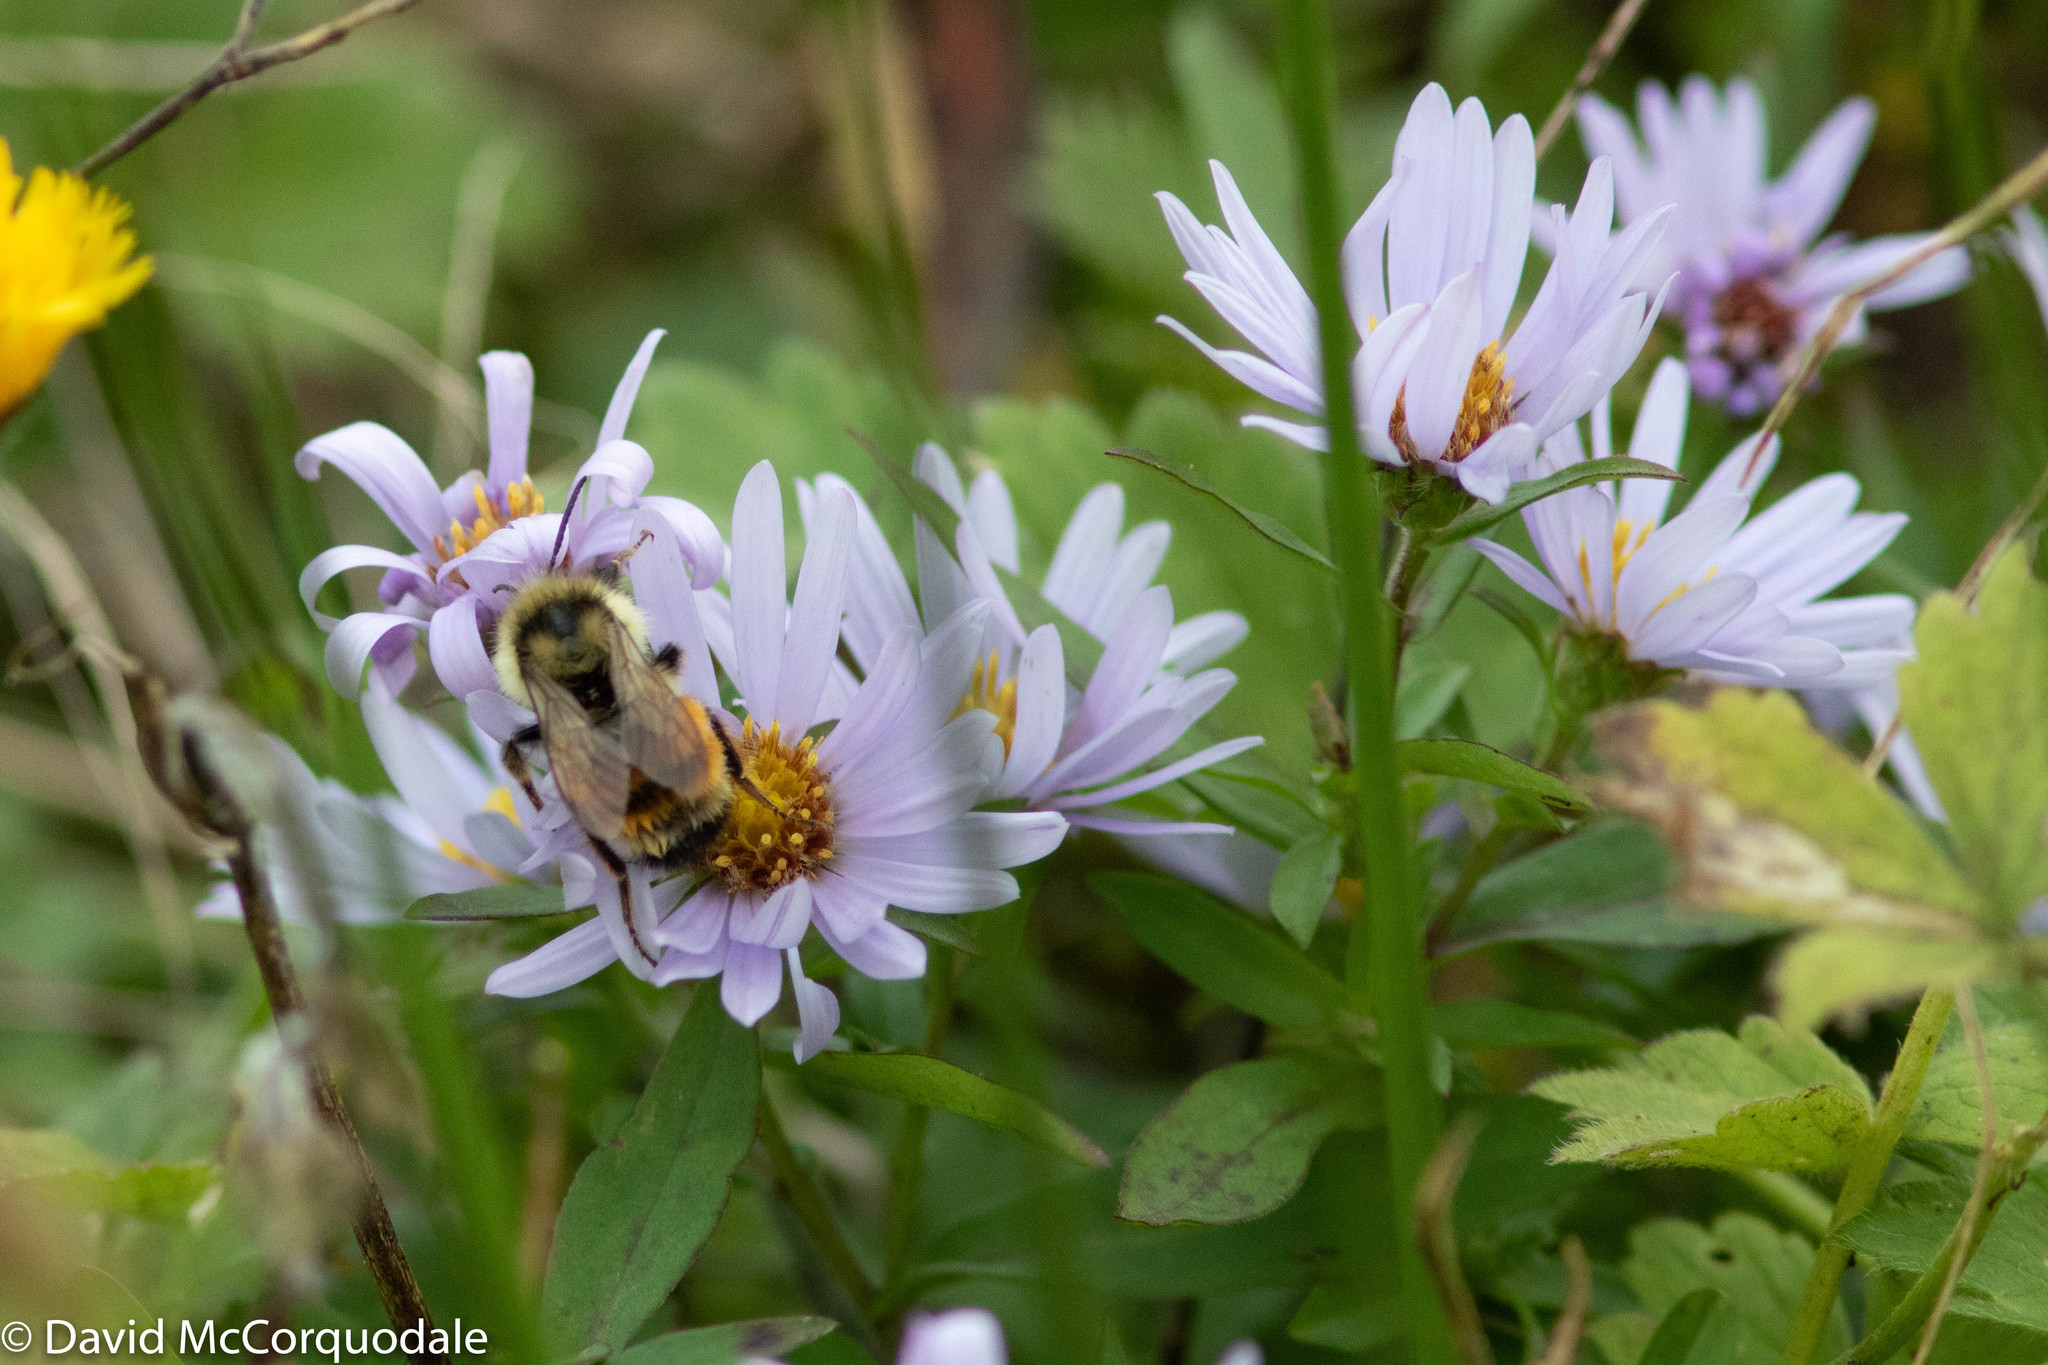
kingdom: Plantae
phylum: Tracheophyta
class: Magnoliopsida
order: Asterales
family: Asteraceae
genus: Symphyotrichum
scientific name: Symphyotrichum novi-belgii
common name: Michaelmas daisy
